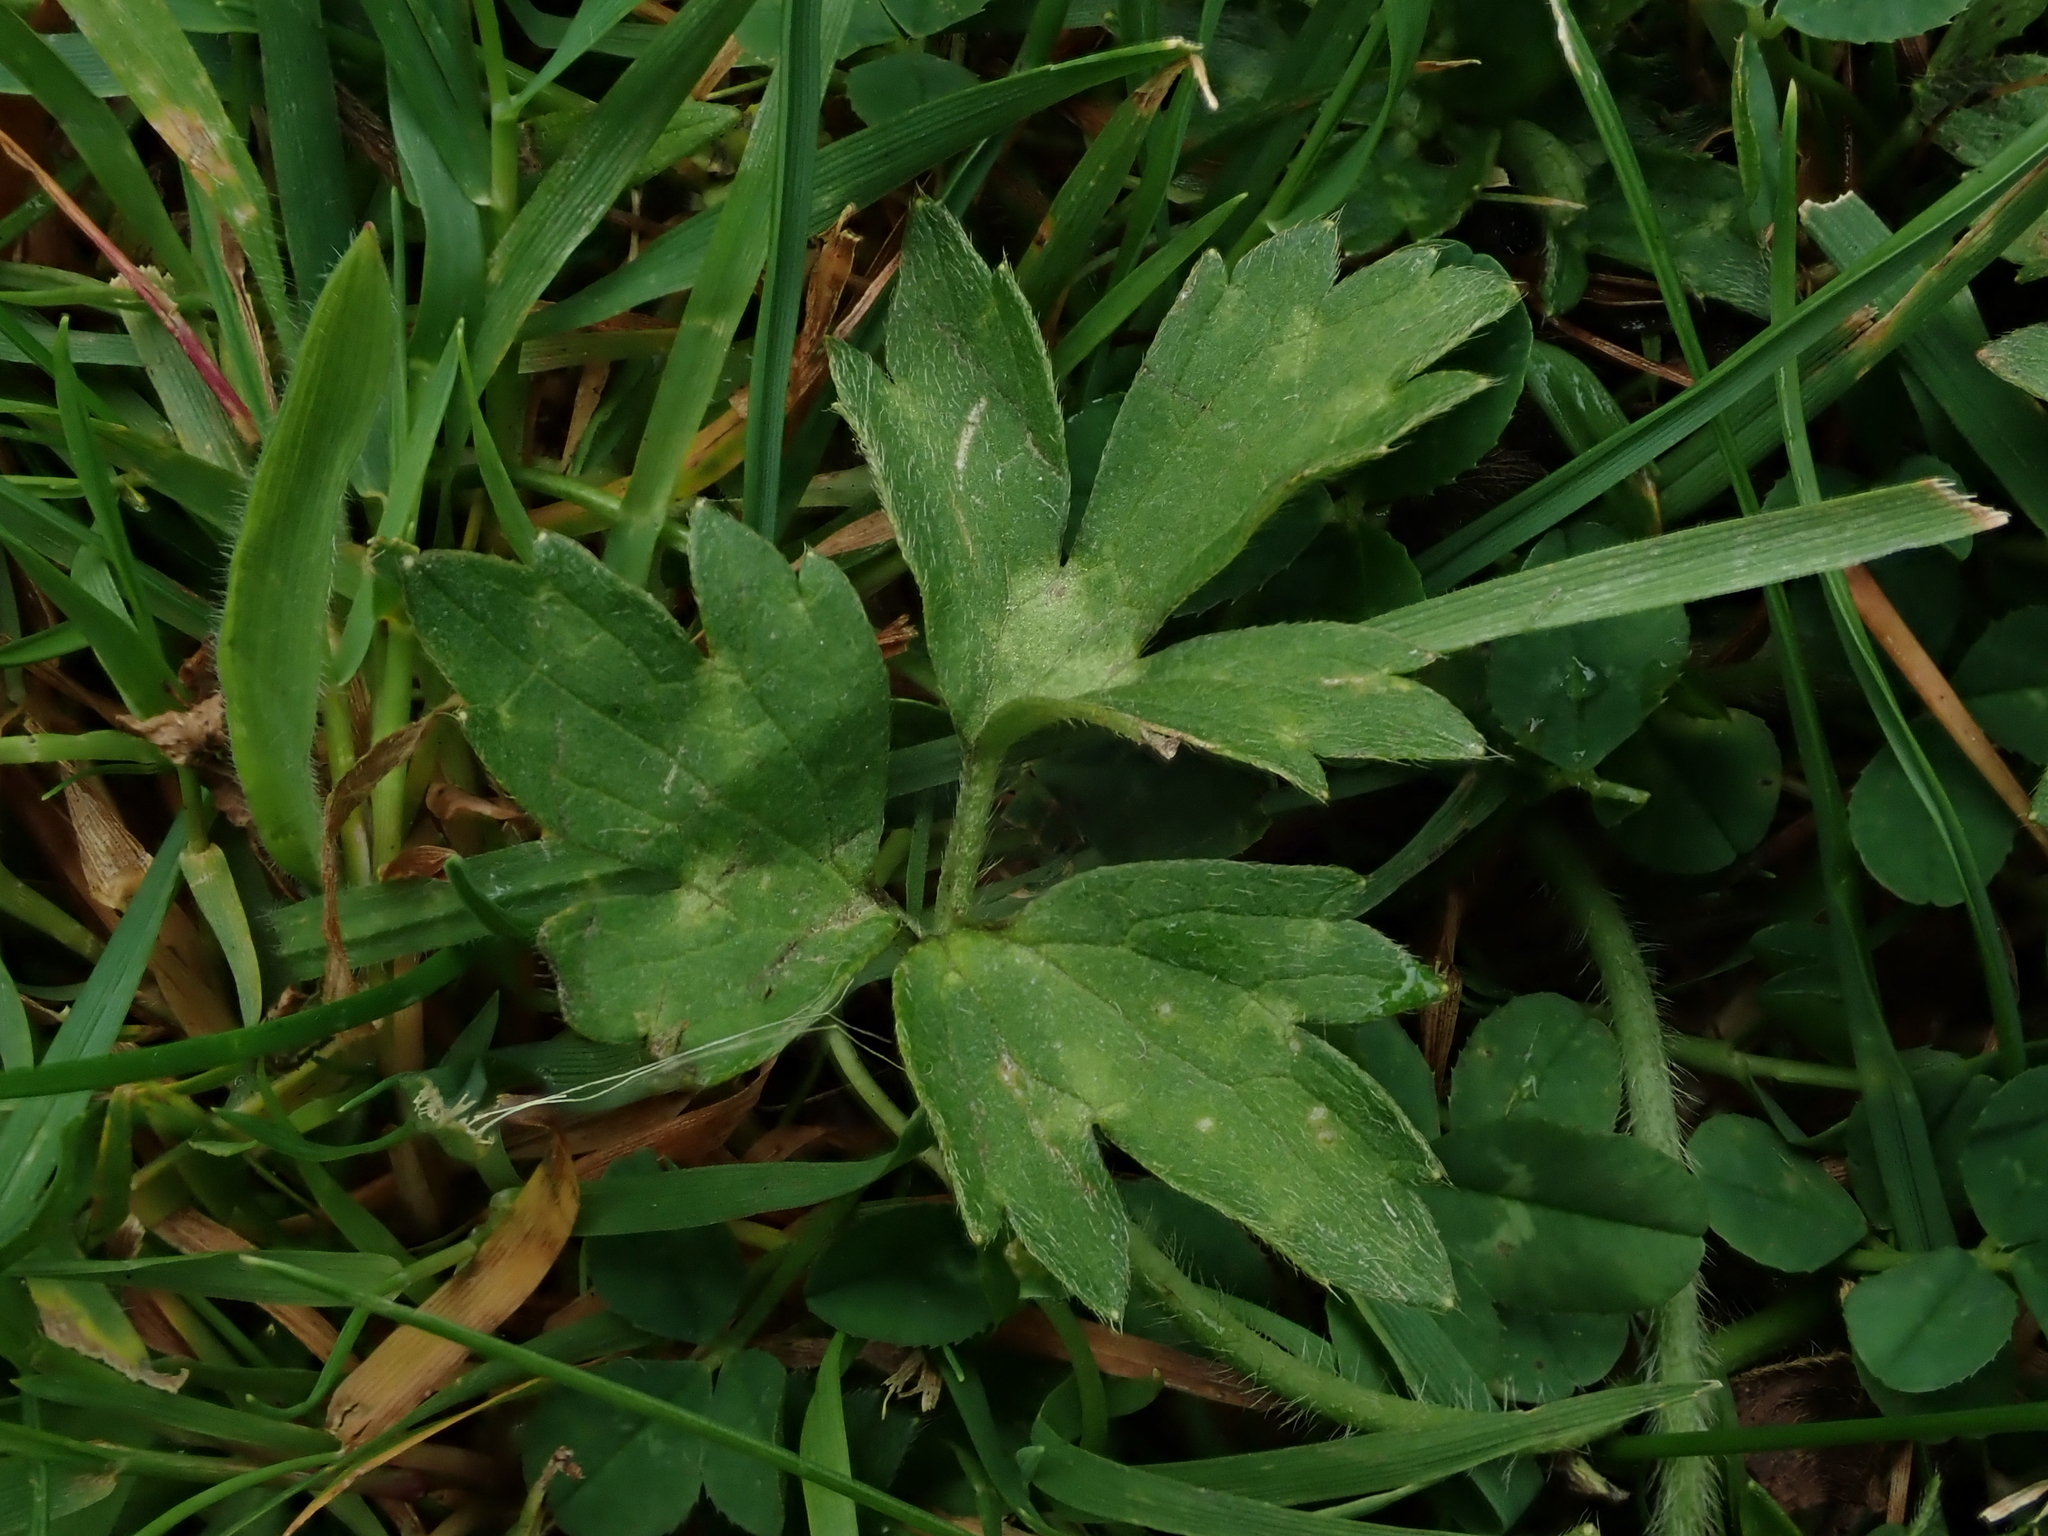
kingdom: Plantae
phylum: Tracheophyta
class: Magnoliopsida
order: Ranunculales
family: Ranunculaceae
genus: Ranunculus
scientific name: Ranunculus repens
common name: Creeping buttercup
